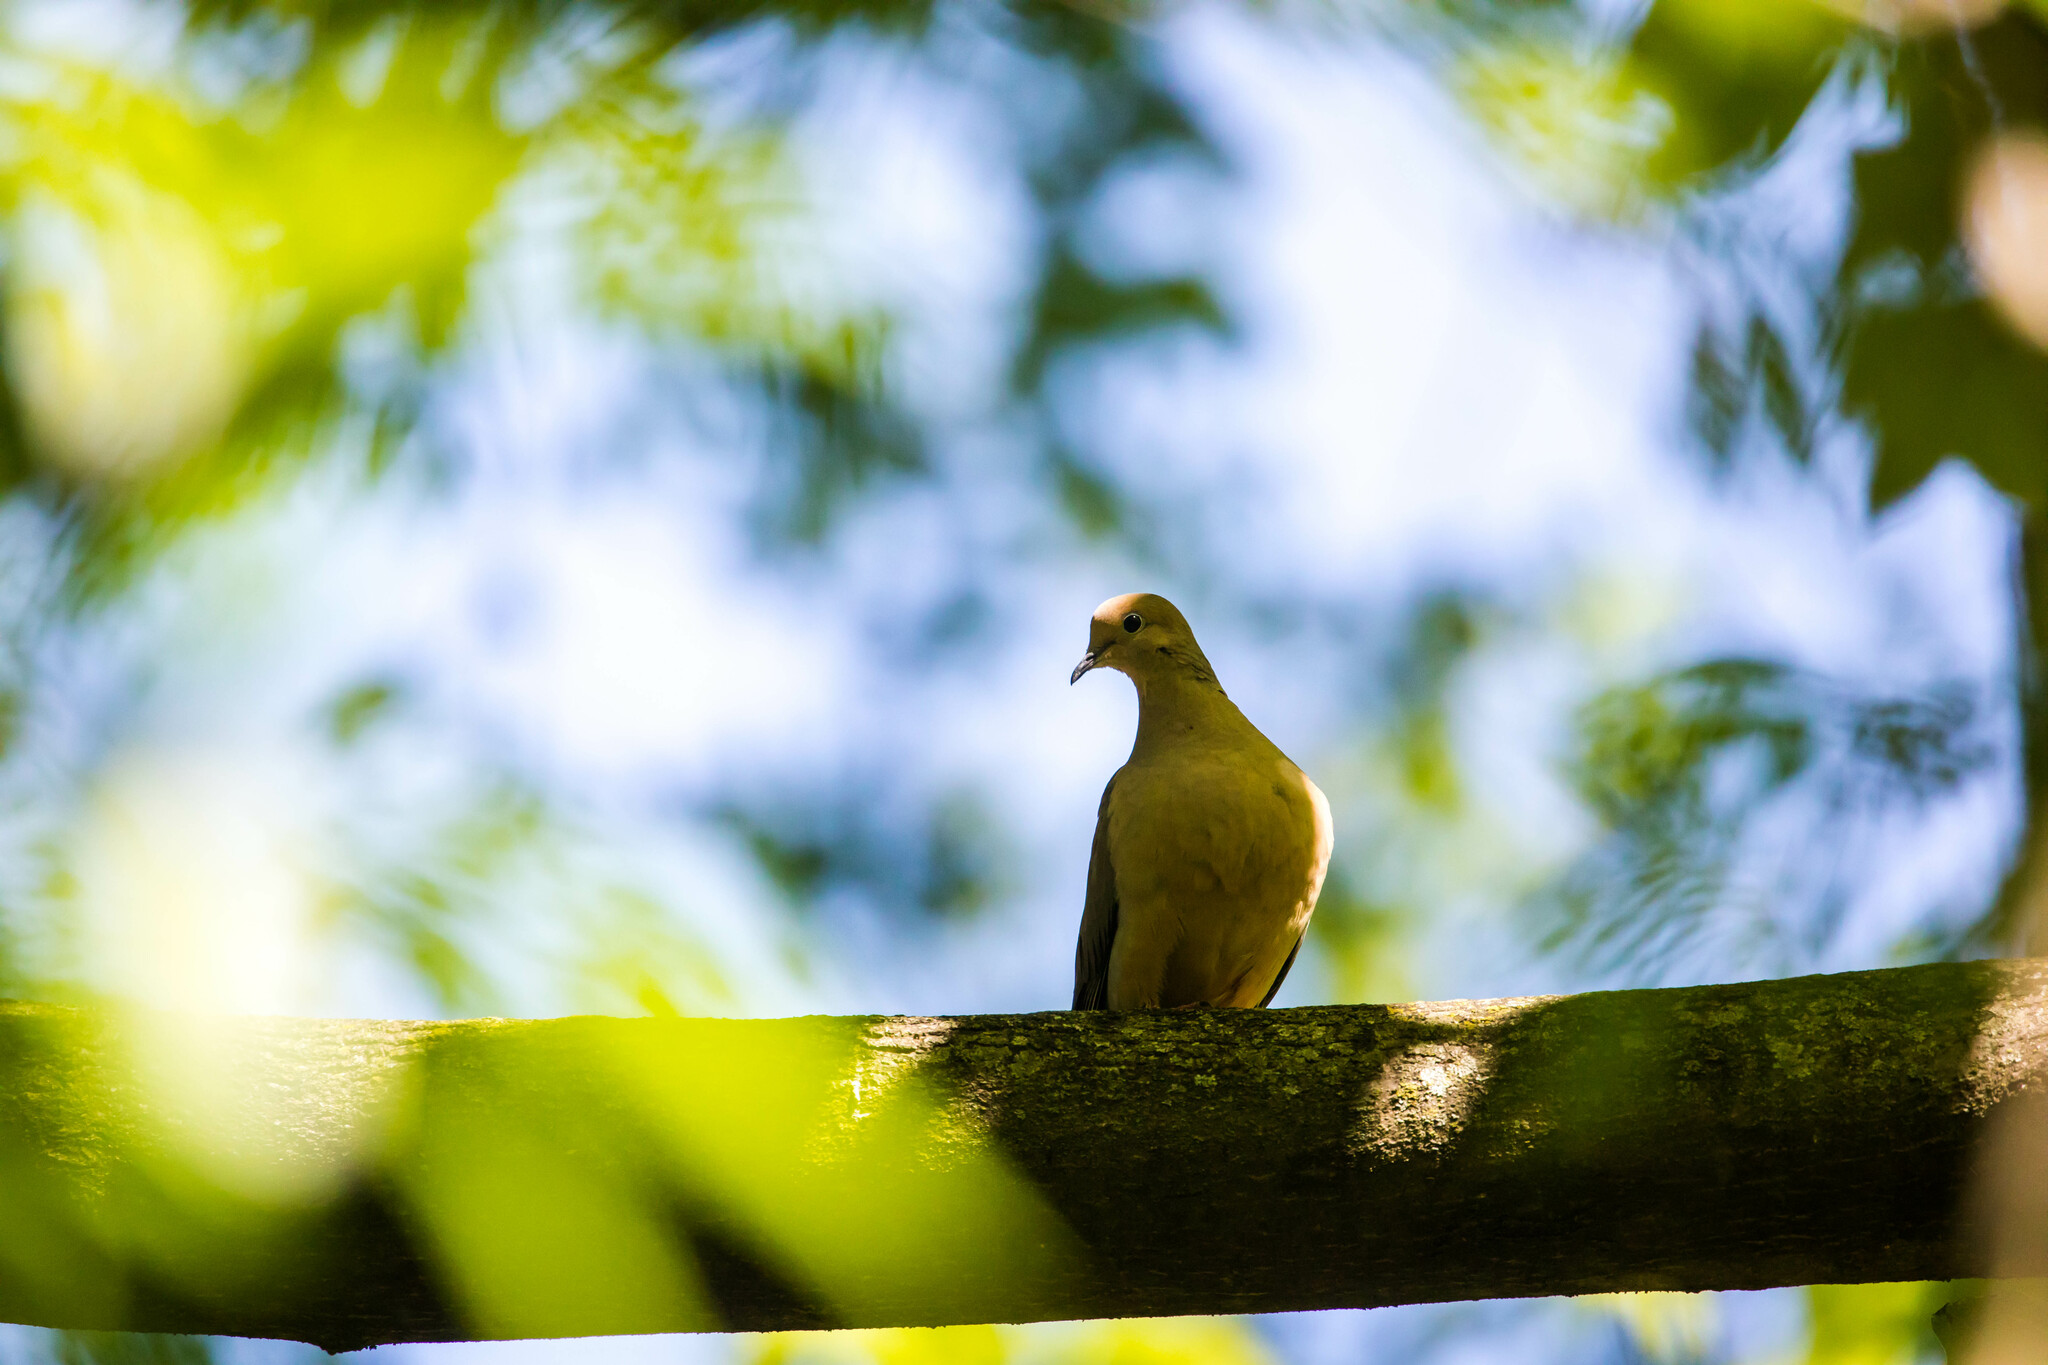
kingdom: Animalia
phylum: Chordata
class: Aves
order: Columbiformes
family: Columbidae
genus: Zenaida
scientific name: Zenaida macroura
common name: Mourning dove
